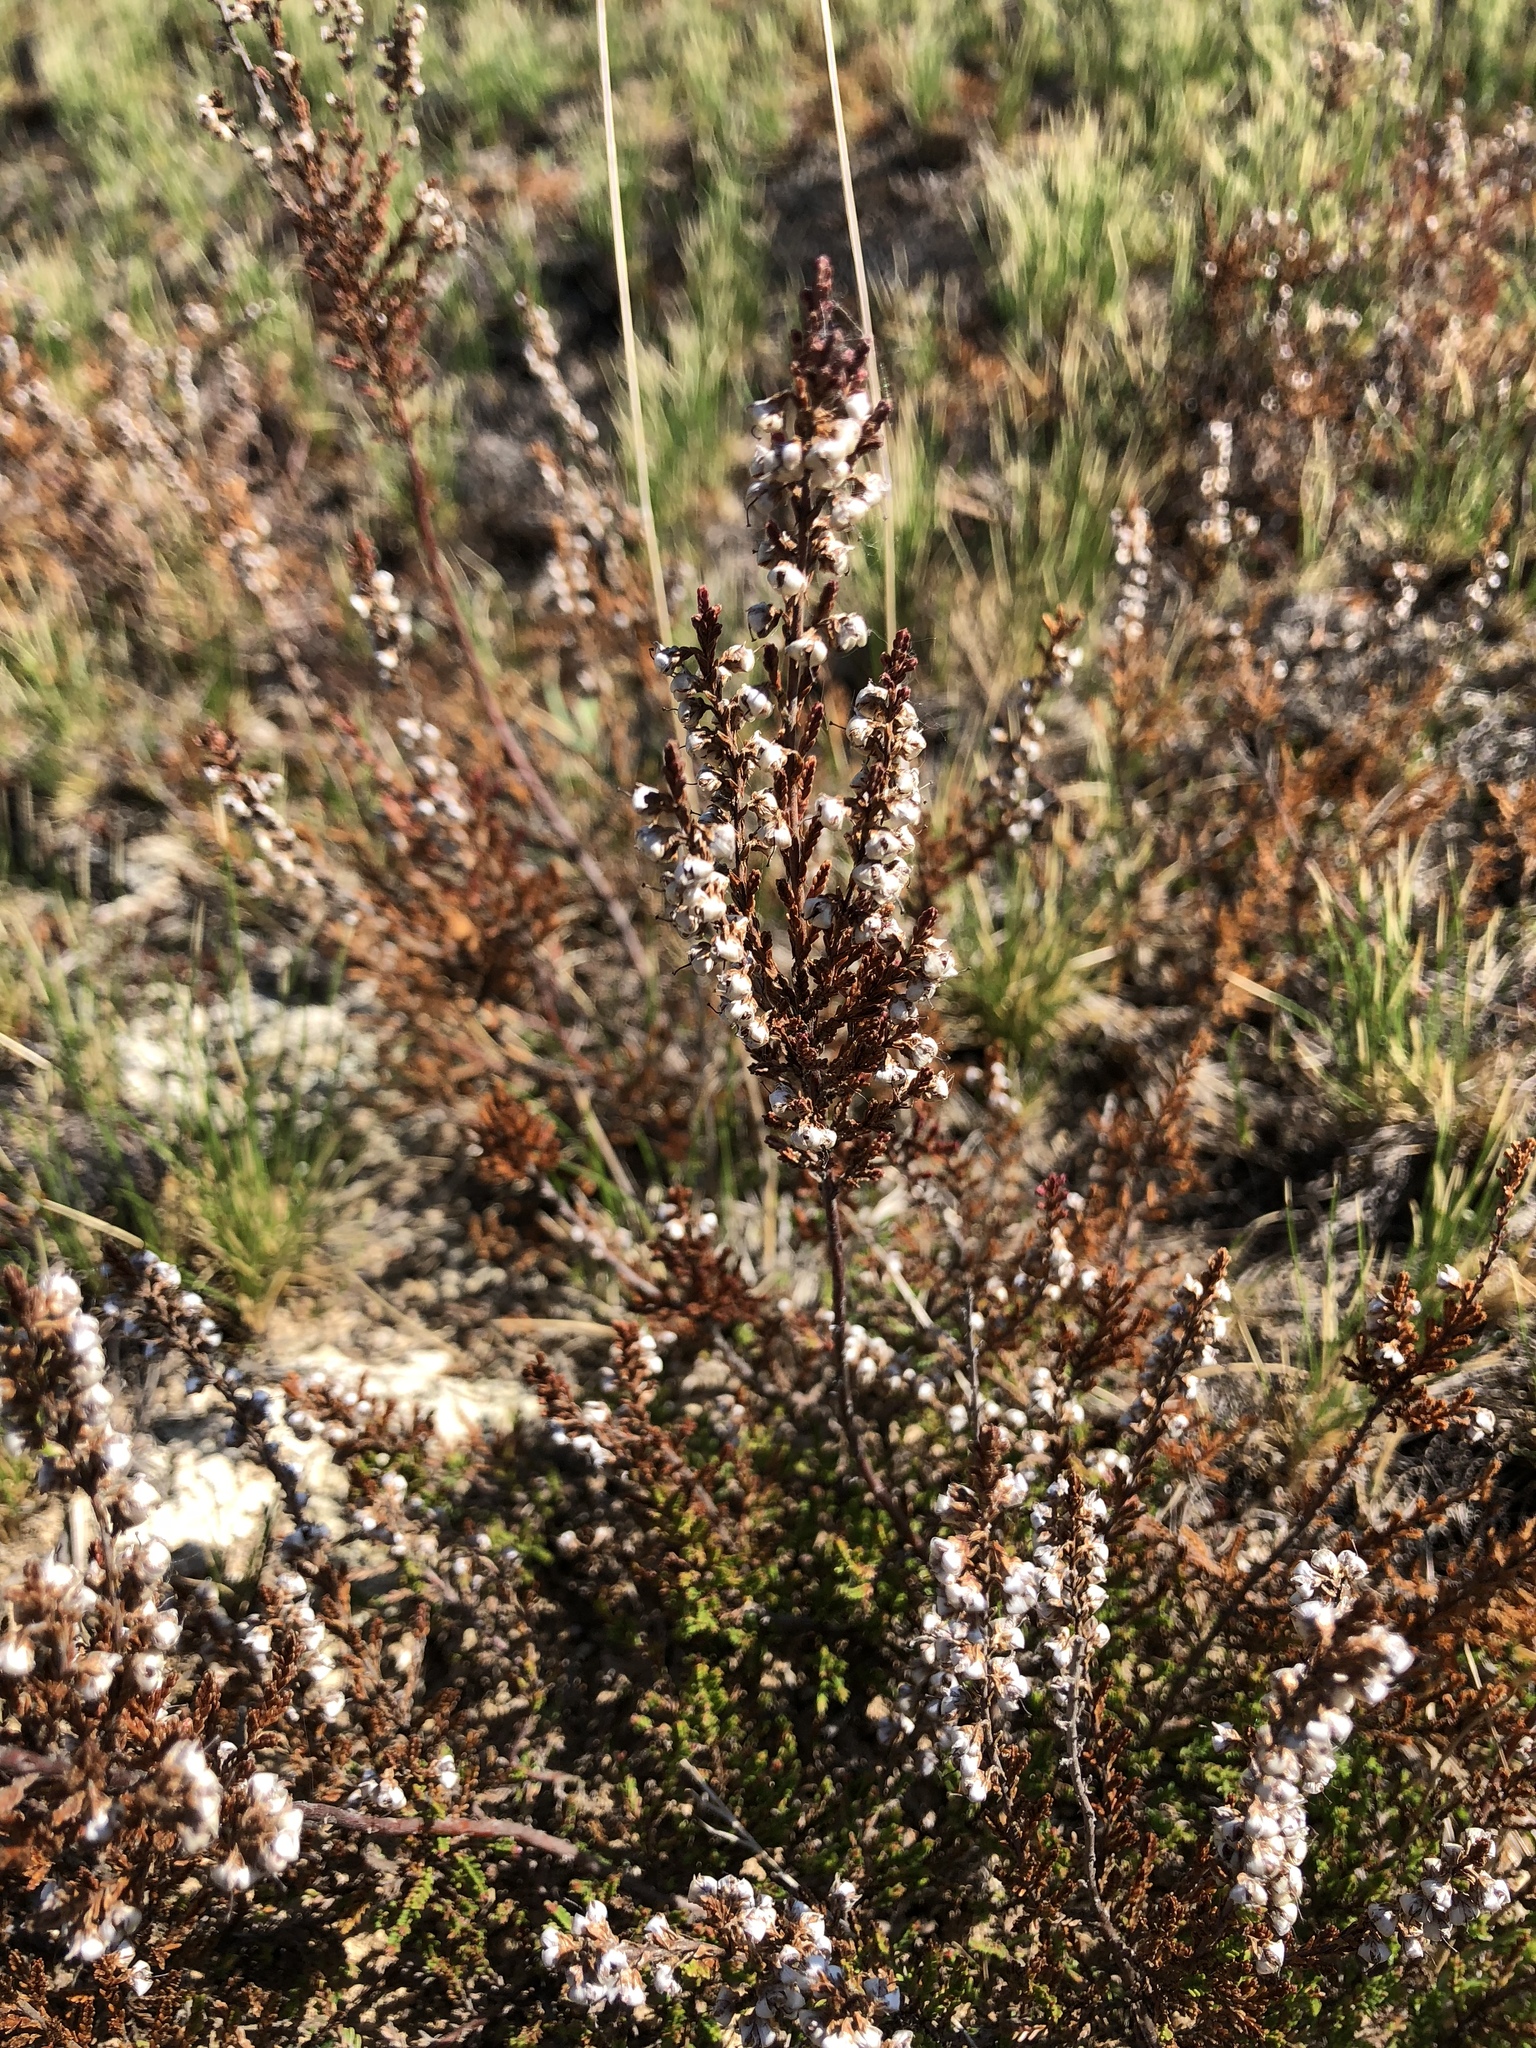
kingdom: Plantae
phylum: Tracheophyta
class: Magnoliopsida
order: Ericales
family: Ericaceae
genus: Calluna
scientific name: Calluna vulgaris
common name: Heather
